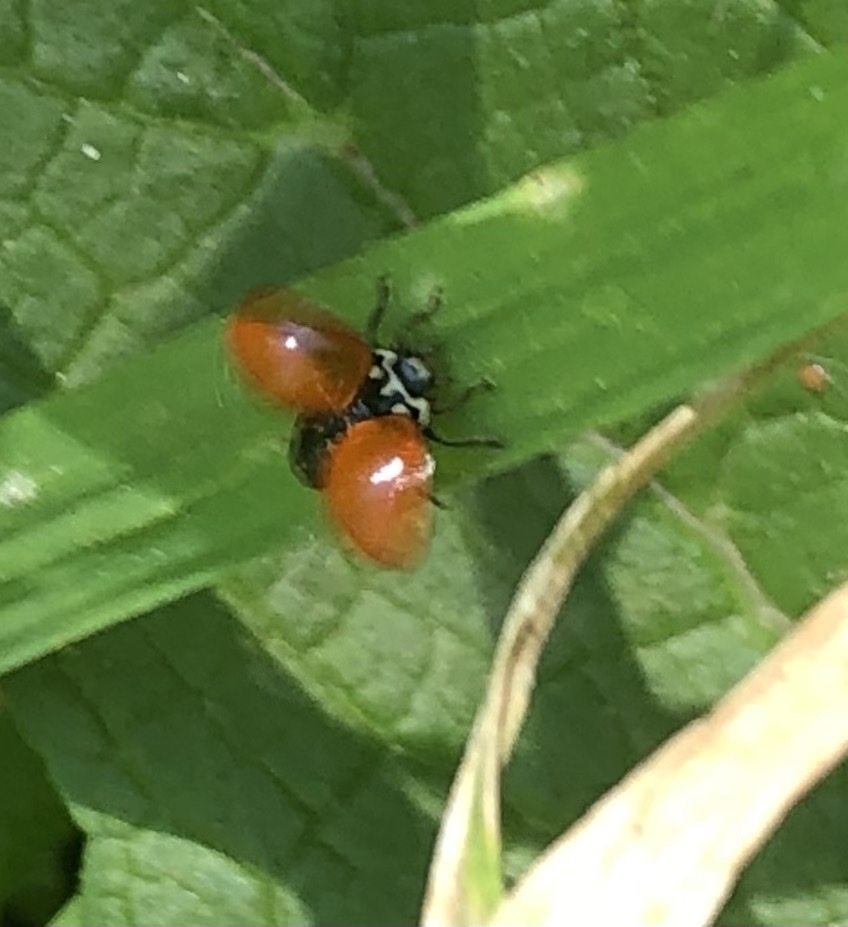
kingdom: Animalia
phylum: Arthropoda
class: Insecta
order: Coleoptera
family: Coccinellidae
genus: Cycloneda
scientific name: Cycloneda sanguinea
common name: Ladybird beetle
